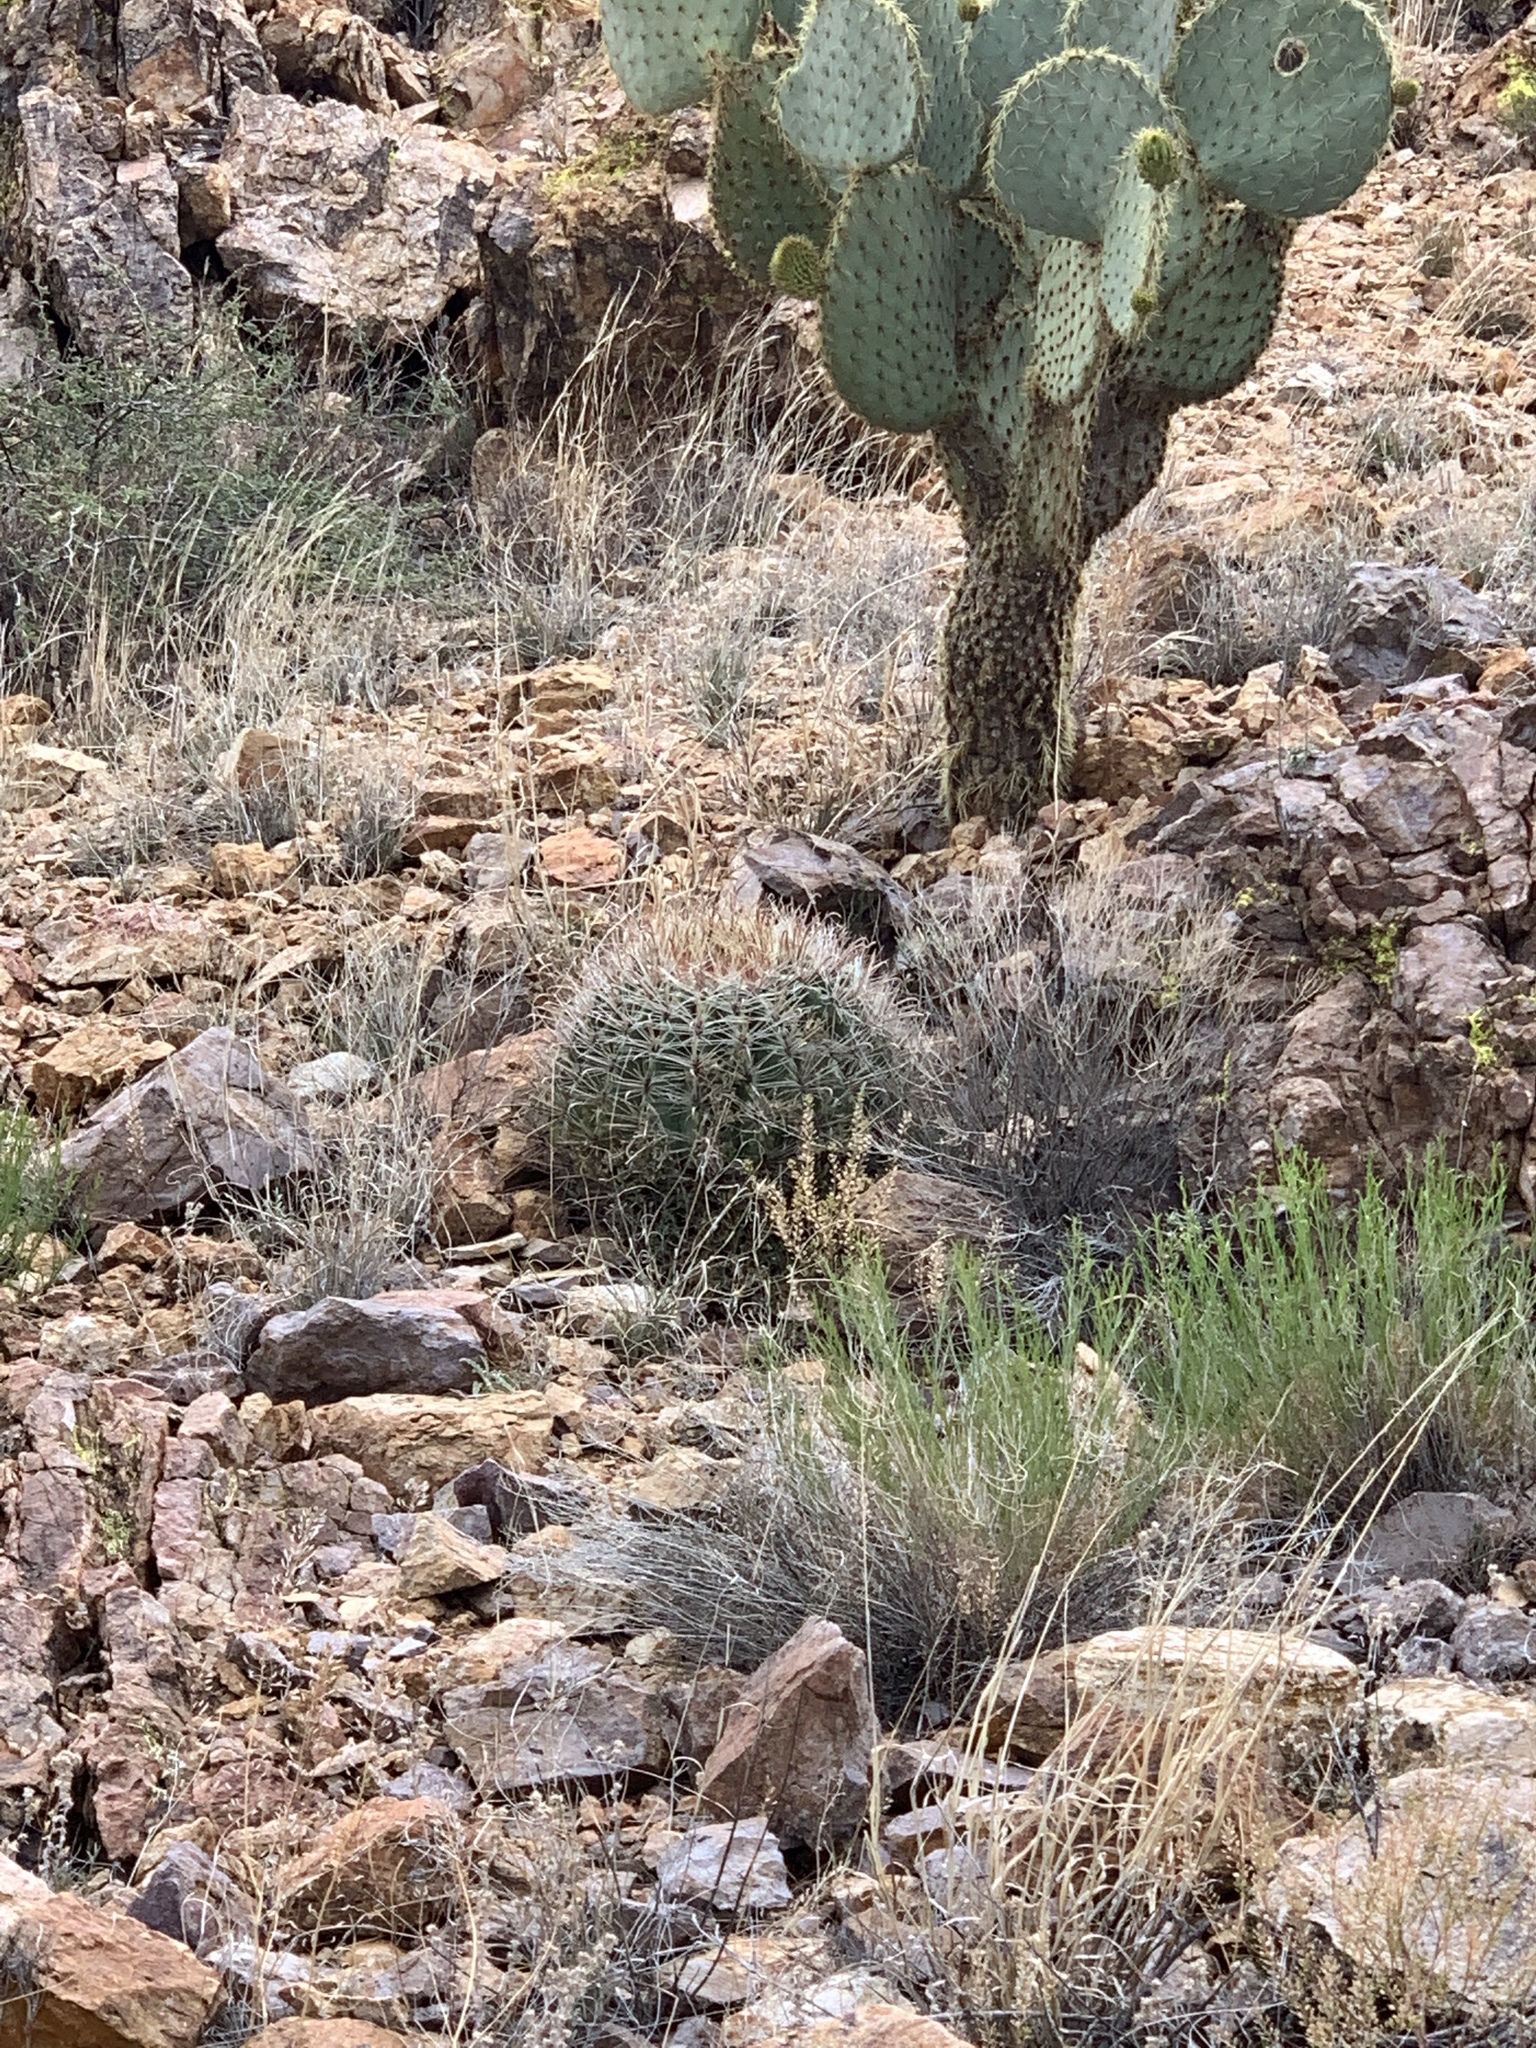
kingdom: Plantae
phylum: Tracheophyta
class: Magnoliopsida
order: Caryophyllales
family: Cactaceae
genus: Ferocactus
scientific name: Ferocactus wislizeni
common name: Candy barrel cactus
